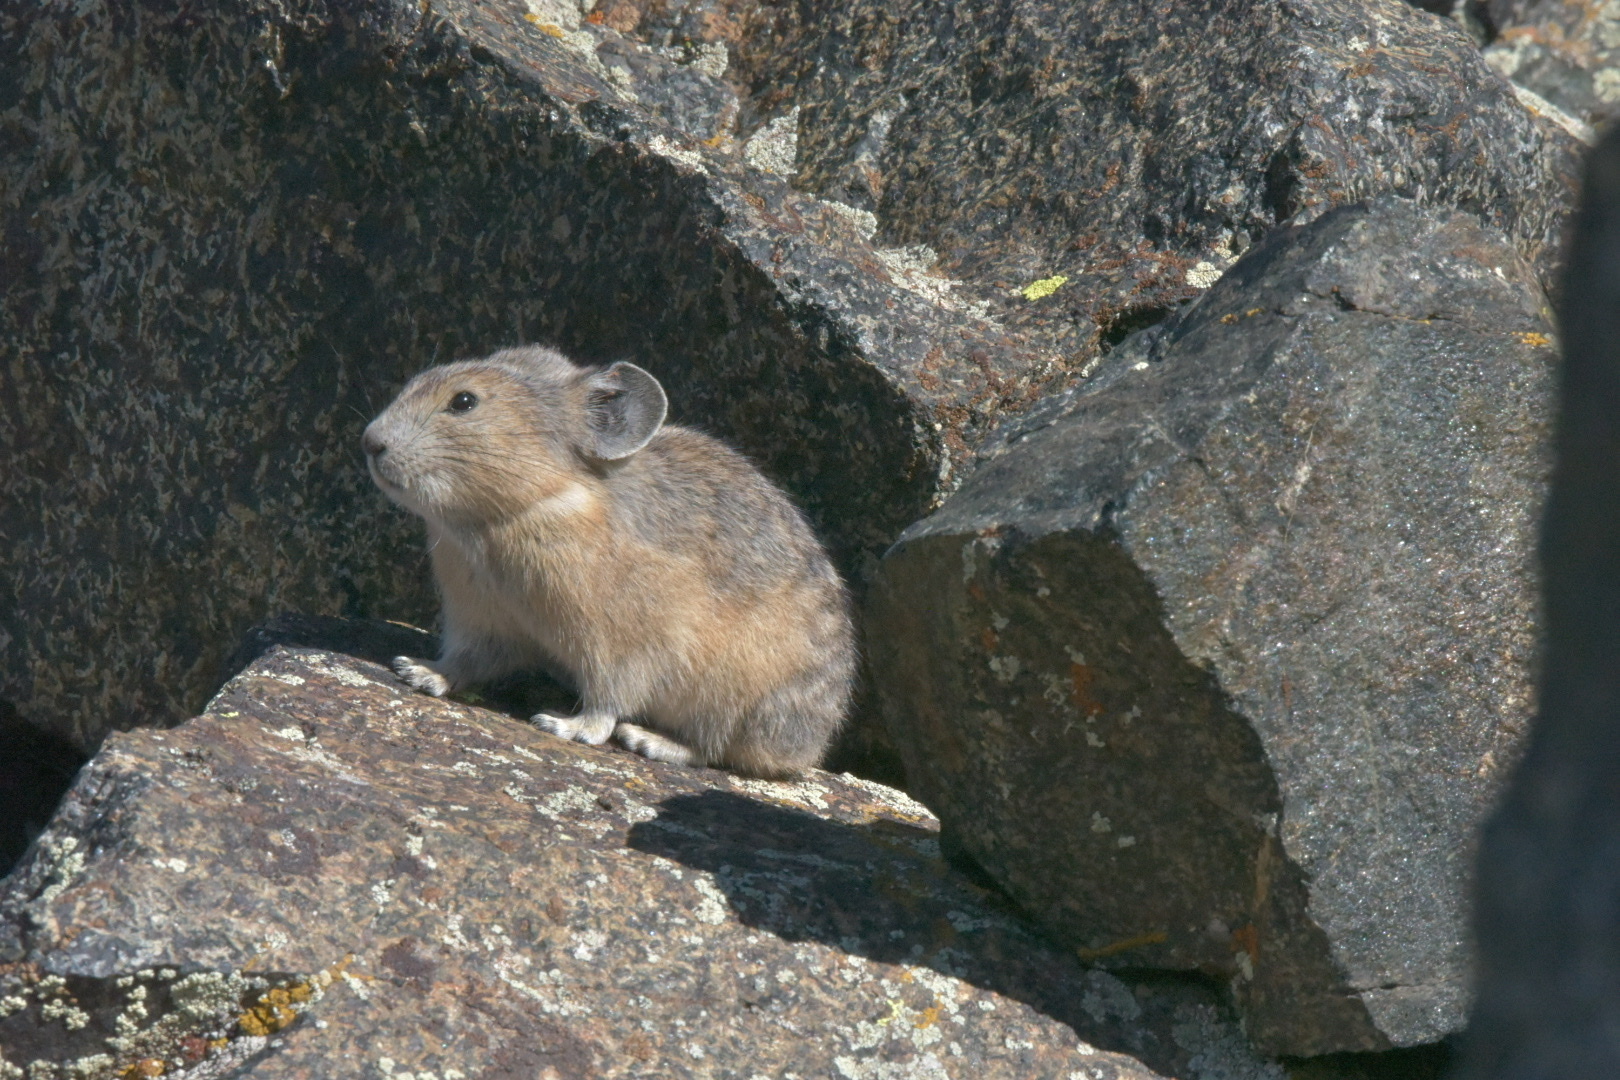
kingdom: Animalia
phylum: Chordata
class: Mammalia
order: Lagomorpha
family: Ochotonidae
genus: Ochotona
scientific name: Ochotona princeps
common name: American pika
